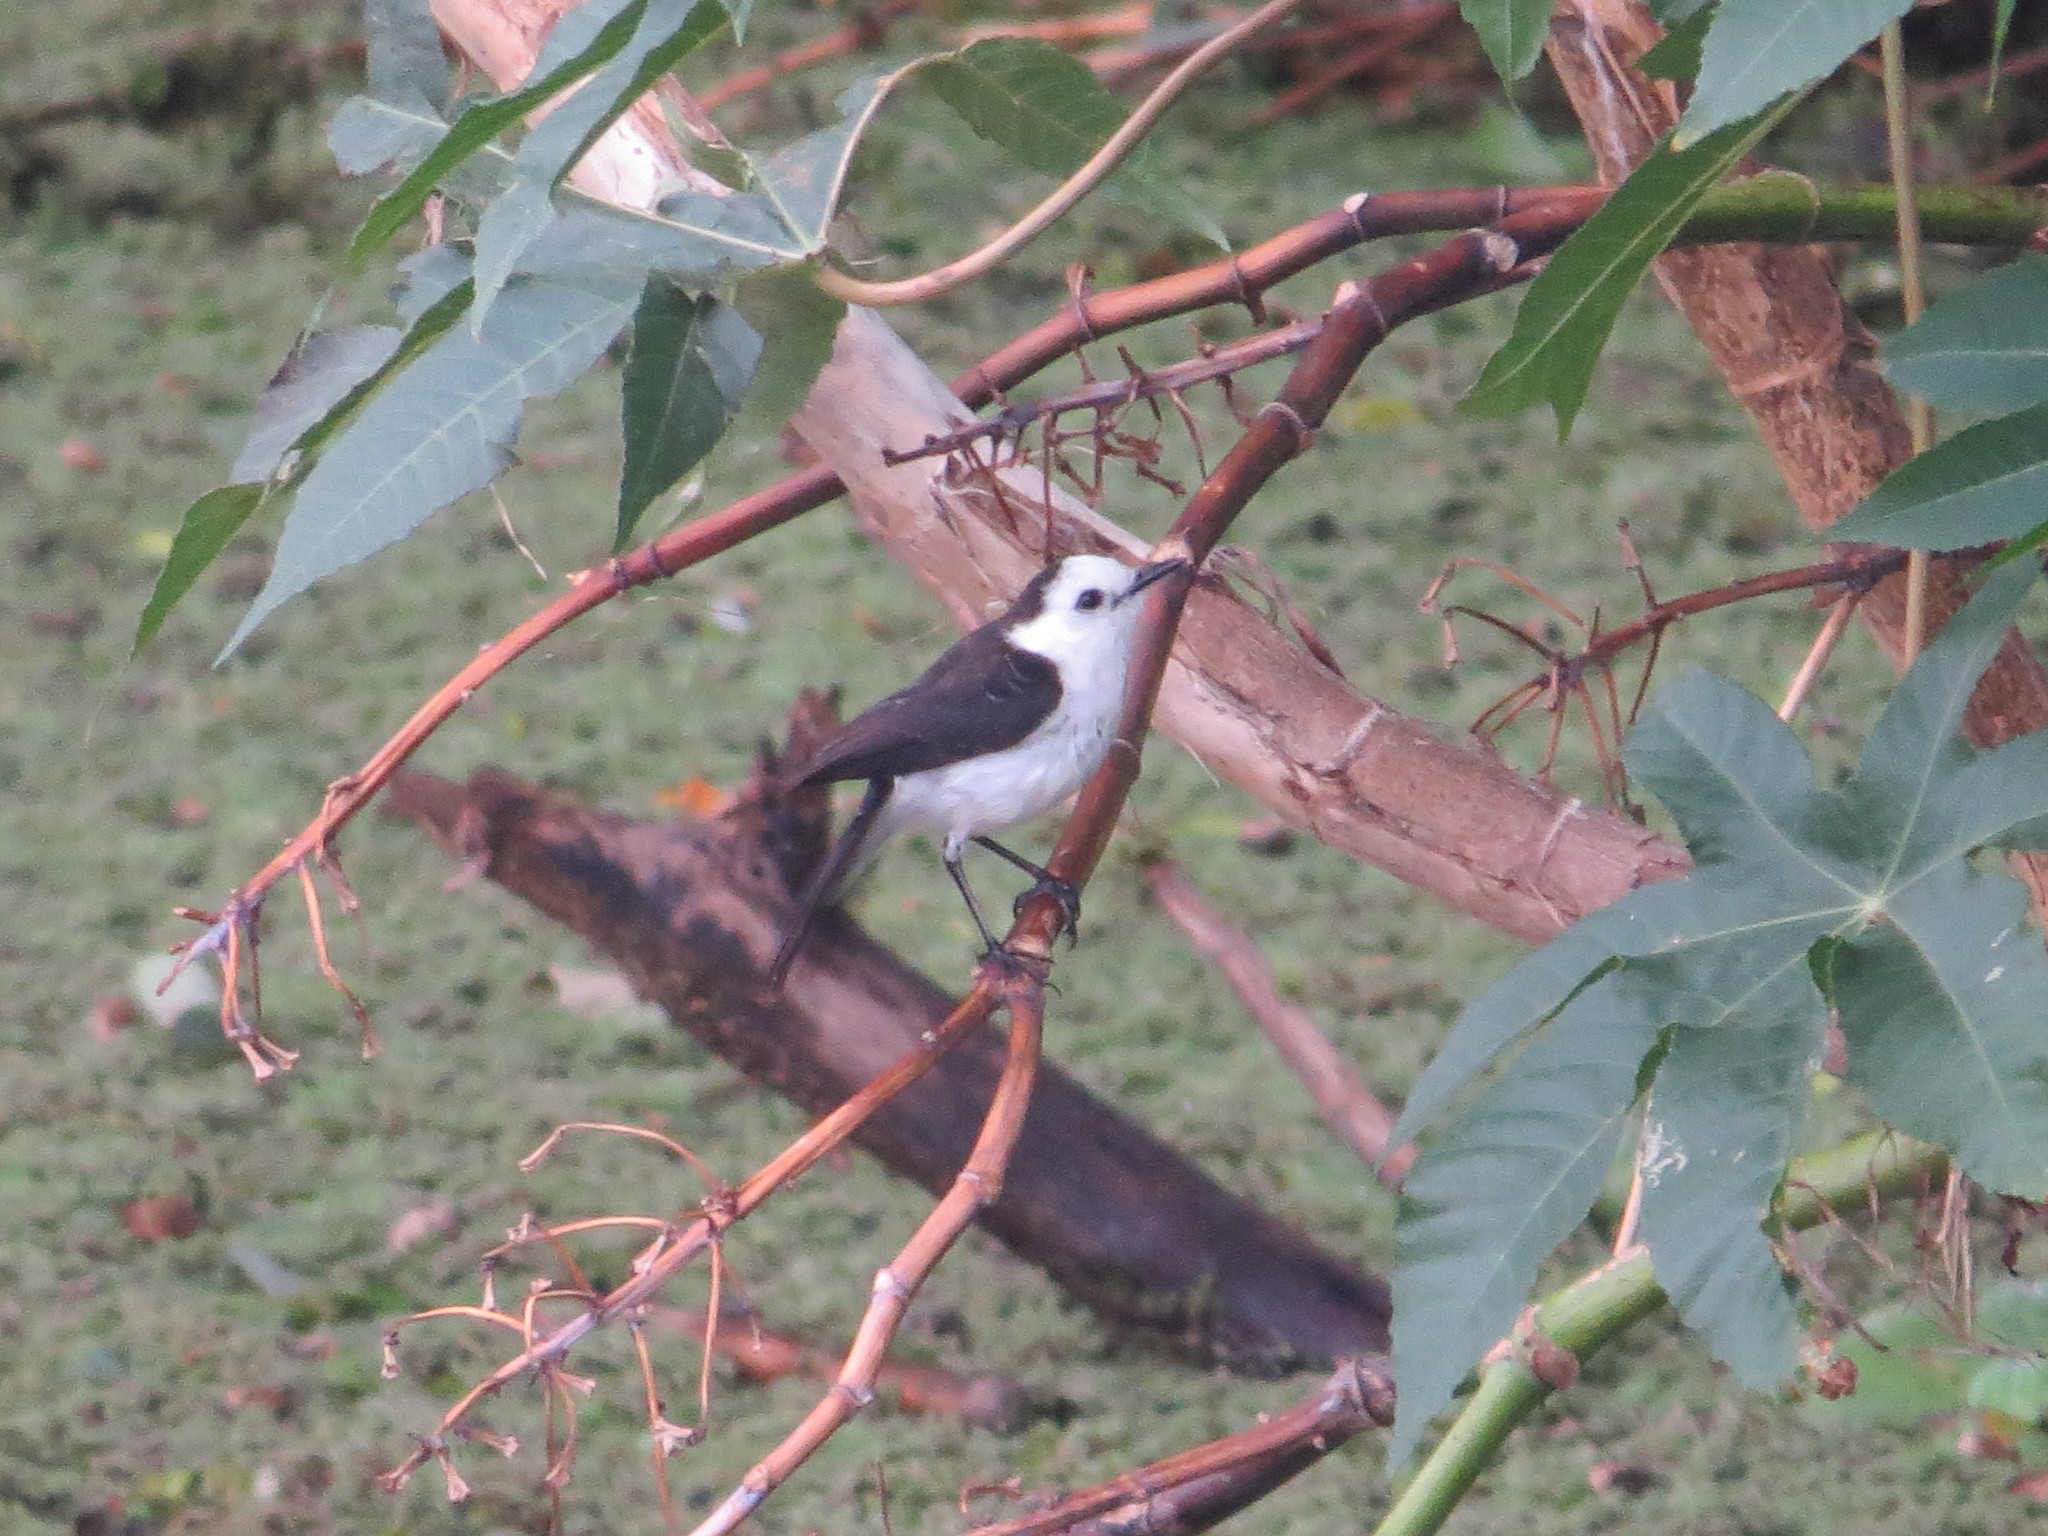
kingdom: Animalia
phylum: Chordata
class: Aves
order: Passeriformes
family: Tyrannidae
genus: Fluvicola
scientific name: Fluvicola pica
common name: Pied water-tyrant
